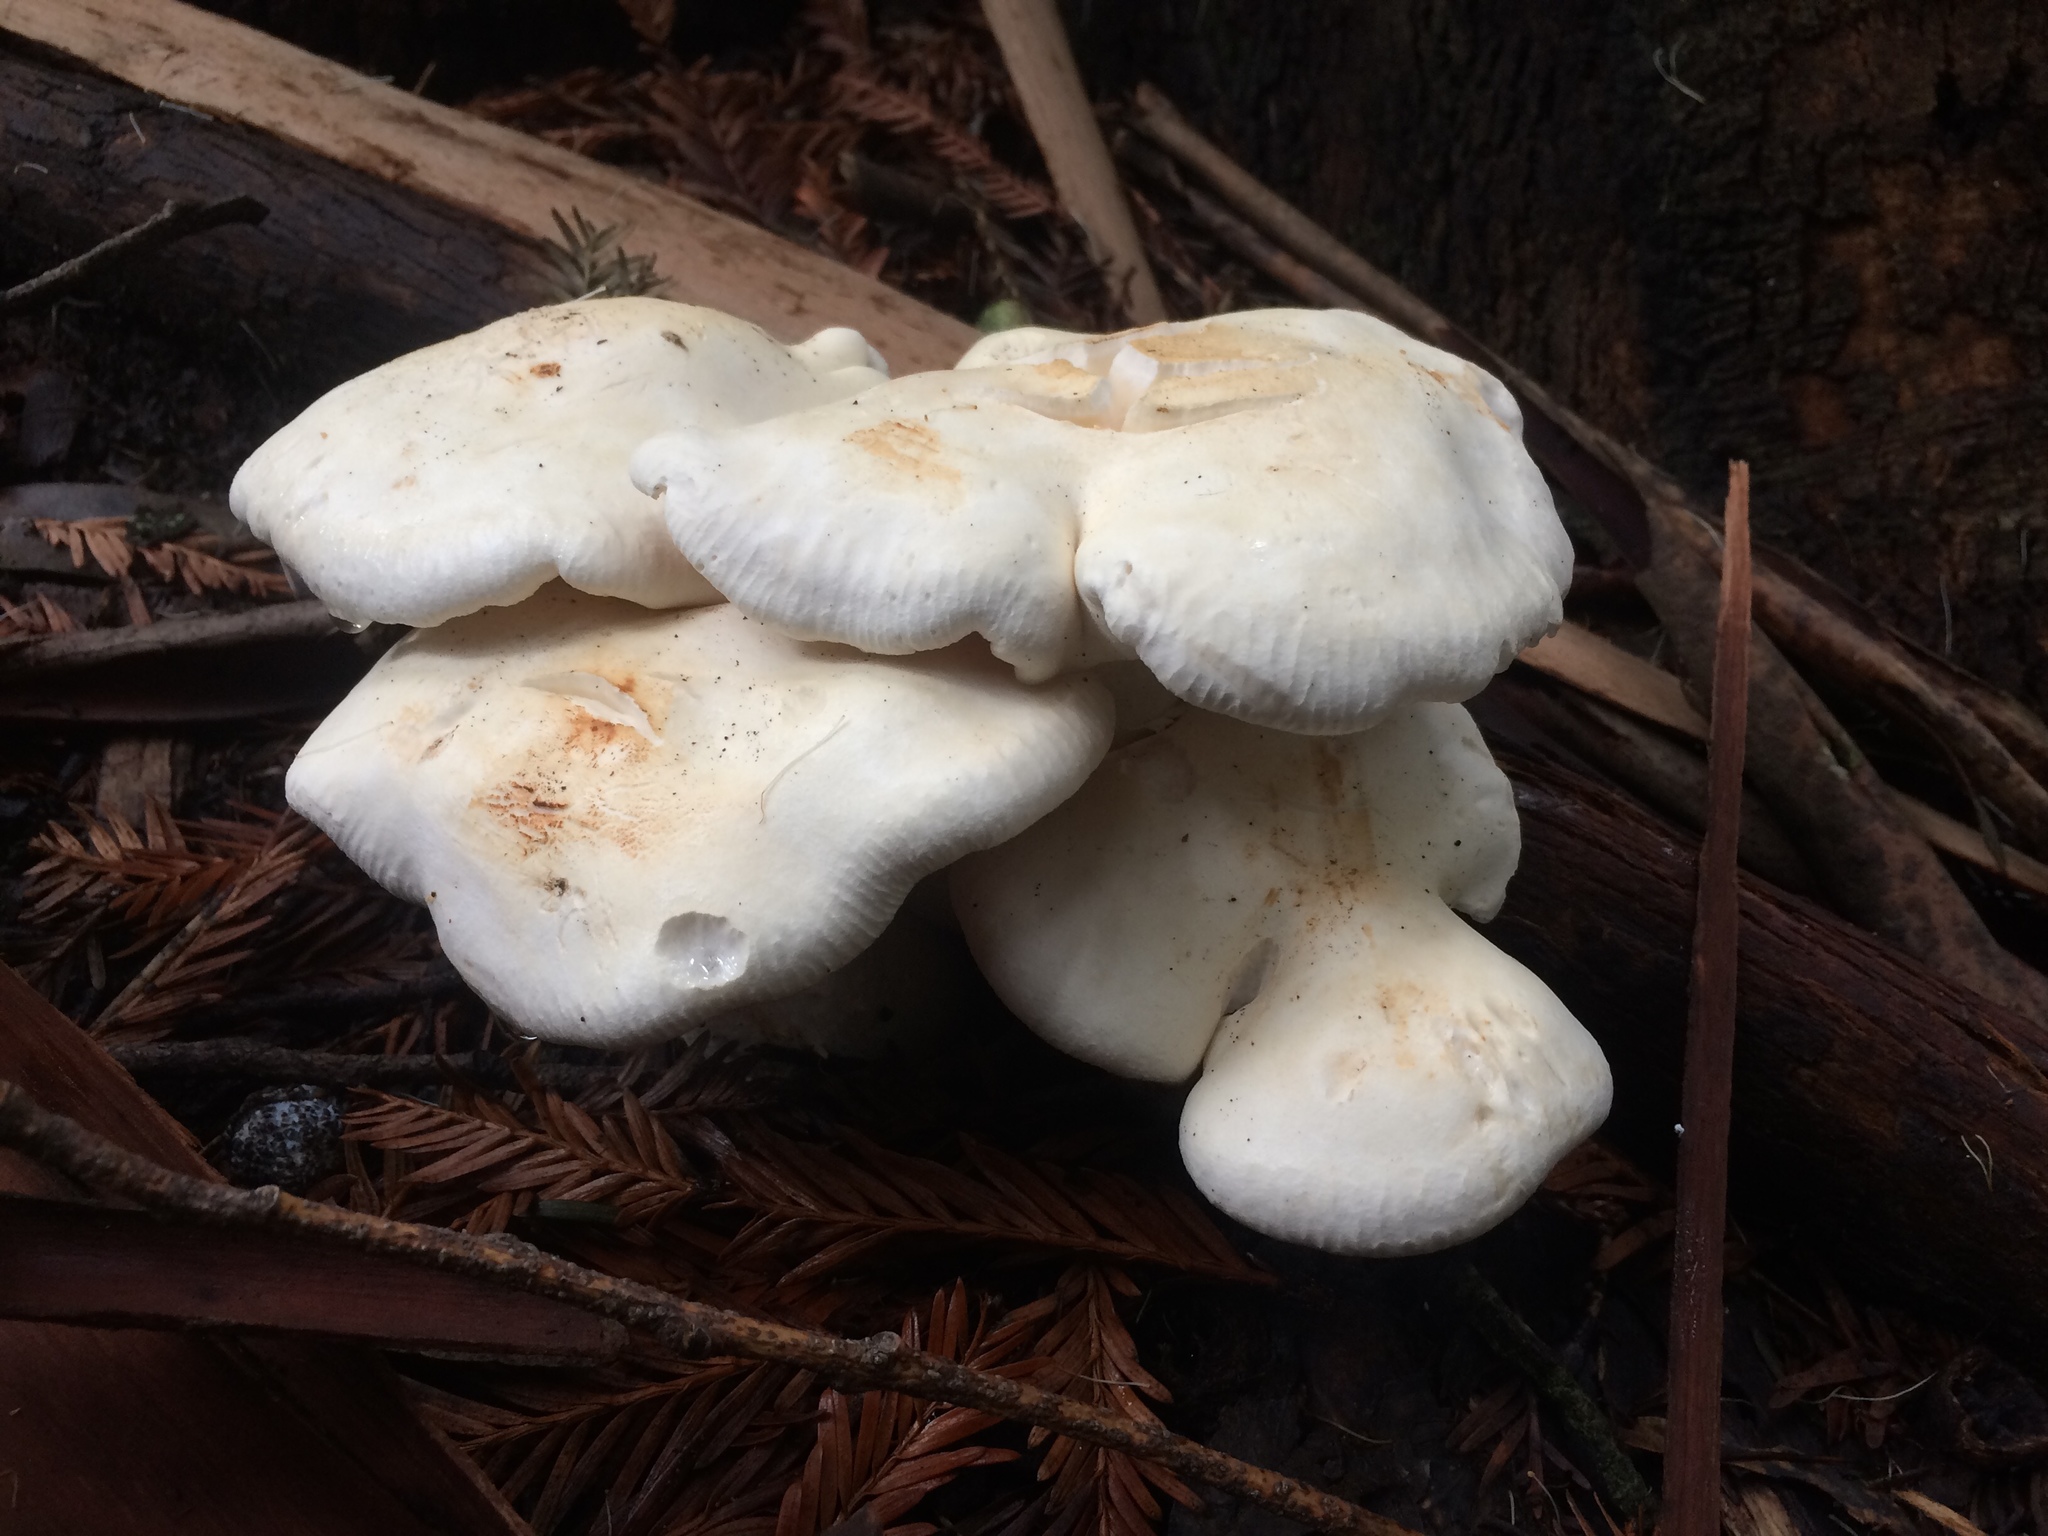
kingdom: Fungi
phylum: Basidiomycota
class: Agaricomycetes
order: Agaricales
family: Tricholomataceae
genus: Leucopaxillus
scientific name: Leucopaxillus albissimus
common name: Large white leucopax
